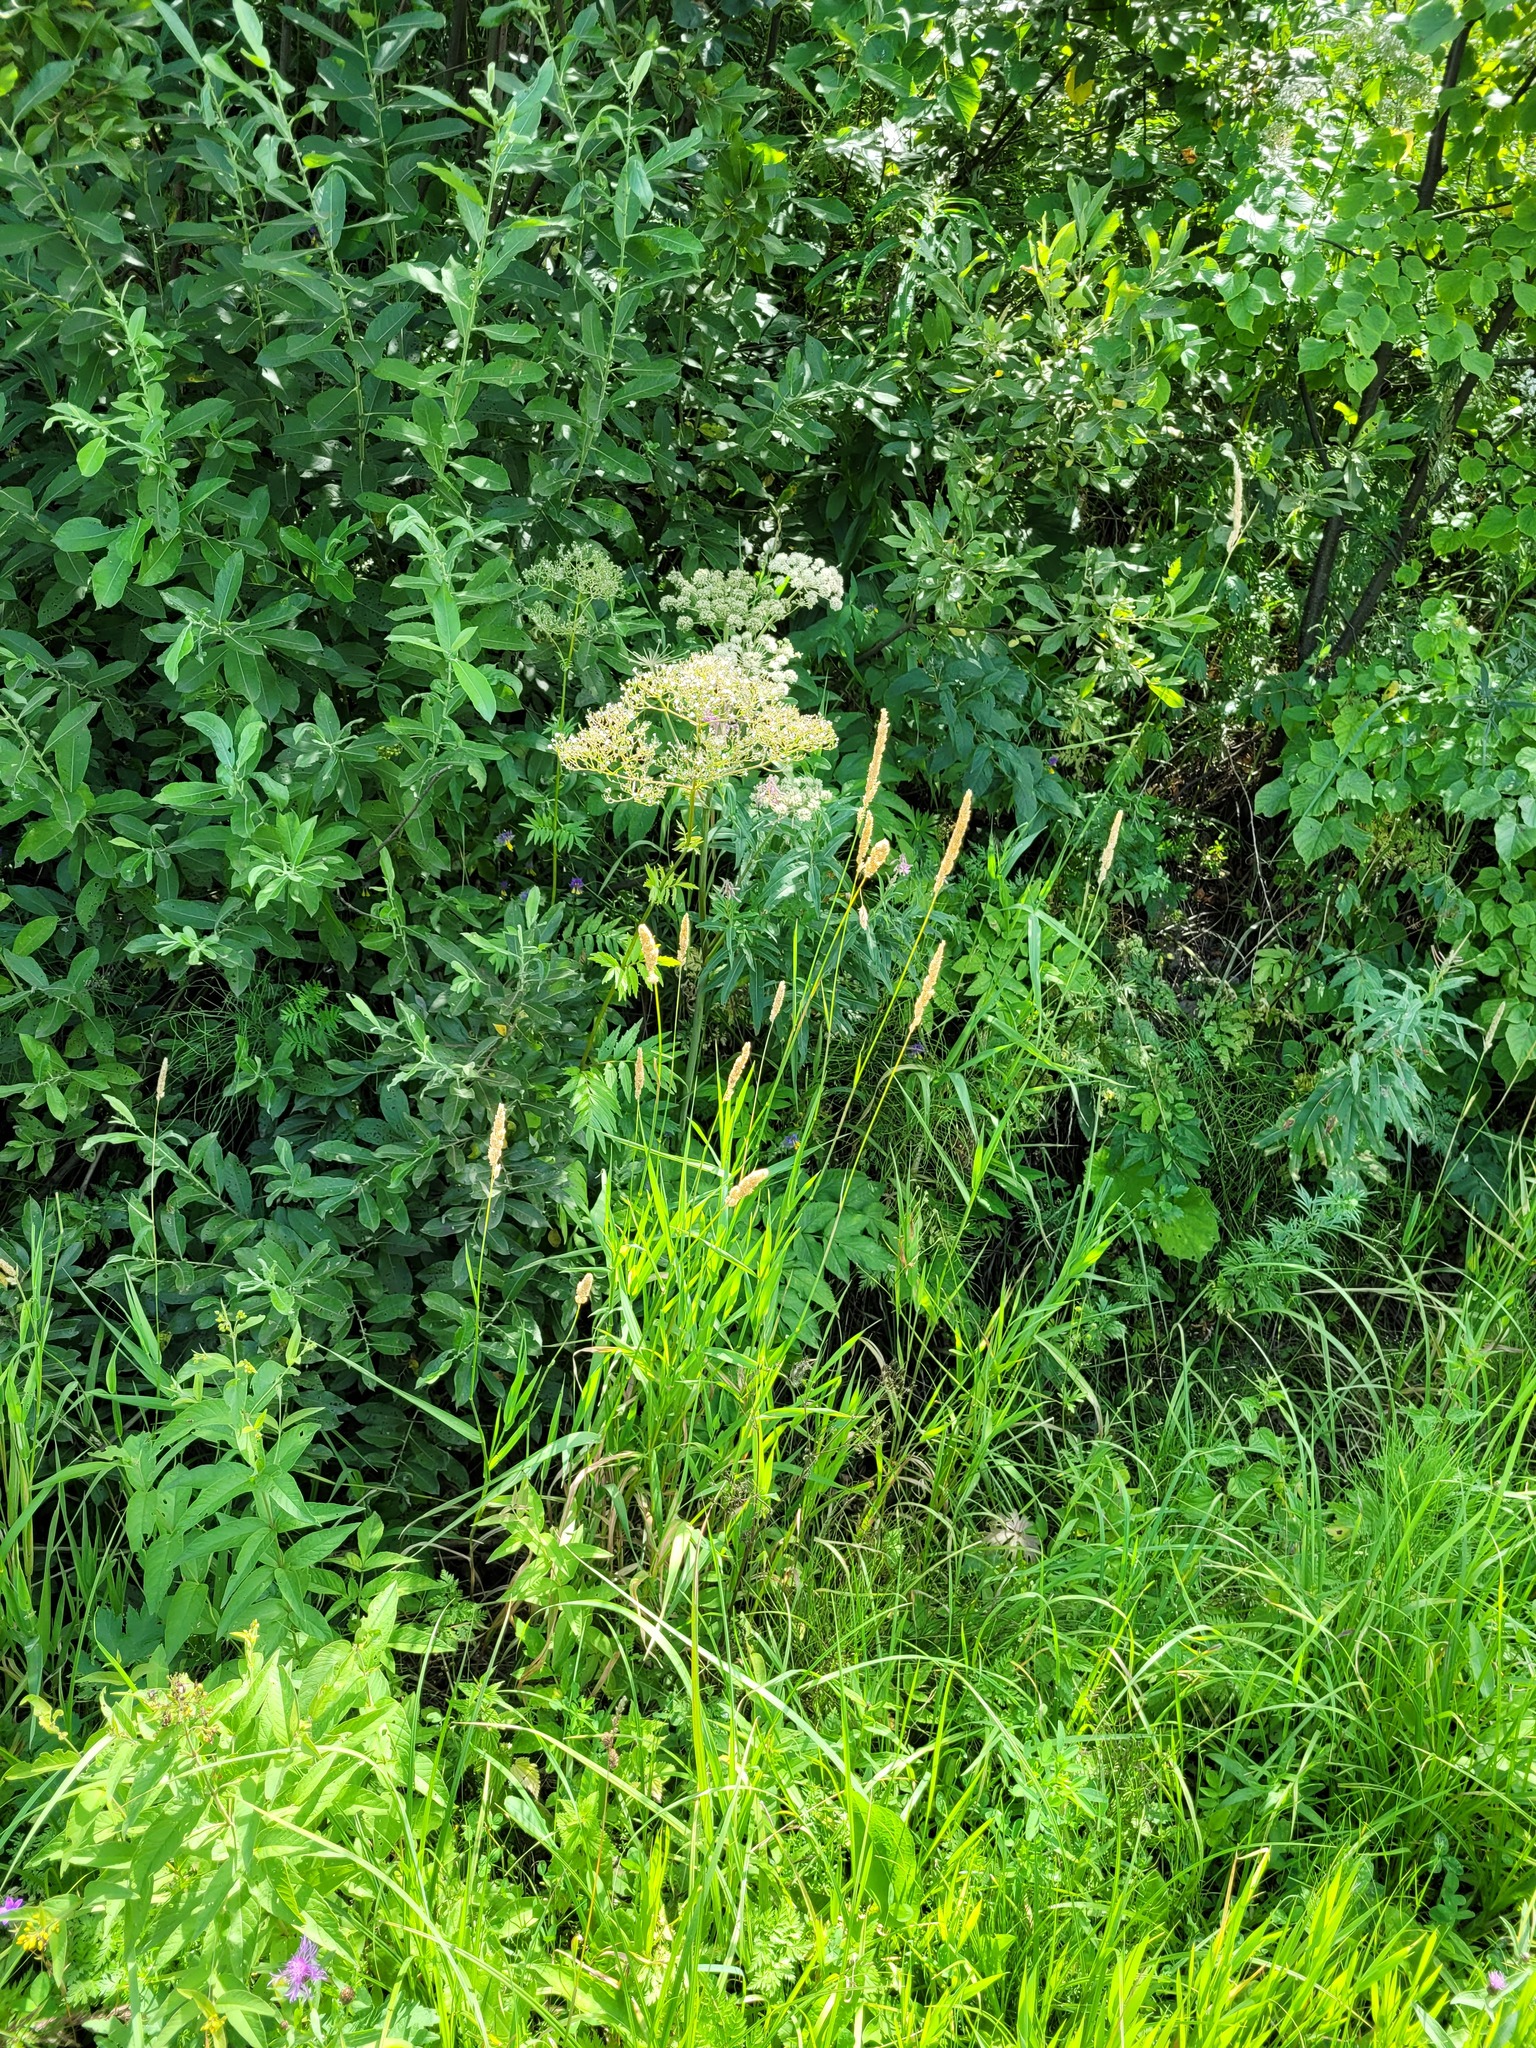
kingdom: Plantae
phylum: Tracheophyta
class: Liliopsida
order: Poales
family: Poaceae
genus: Phalaris
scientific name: Phalaris arundinacea
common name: Reed canary-grass
